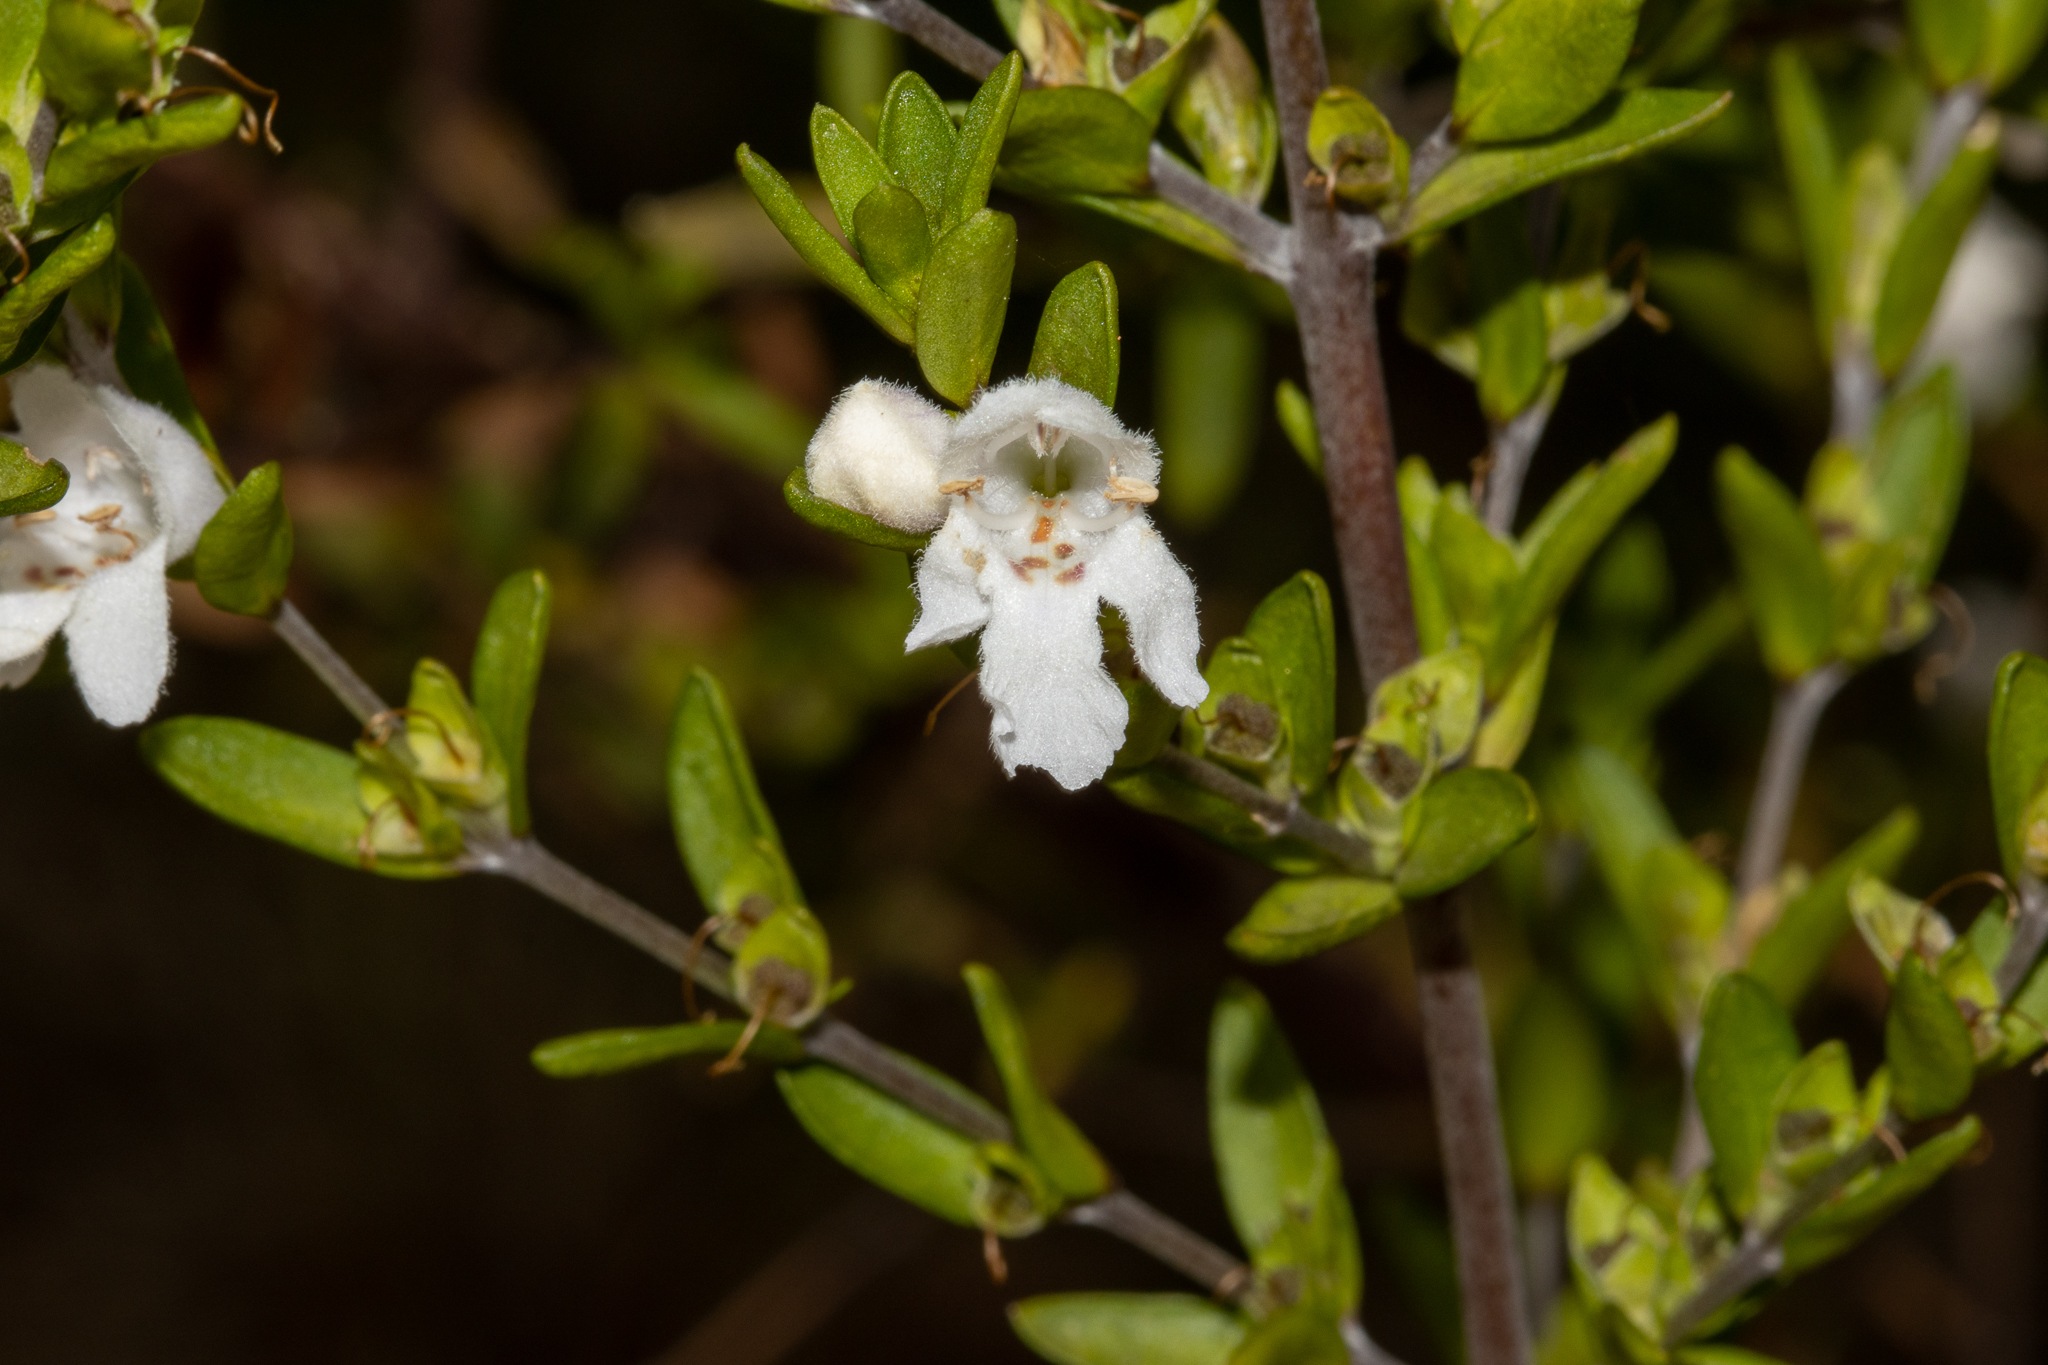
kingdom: Plantae
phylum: Tracheophyta
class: Magnoliopsida
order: Lamiales
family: Lamiaceae
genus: Prostanthera
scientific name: Prostanthera behriana
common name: Downy mintbush
